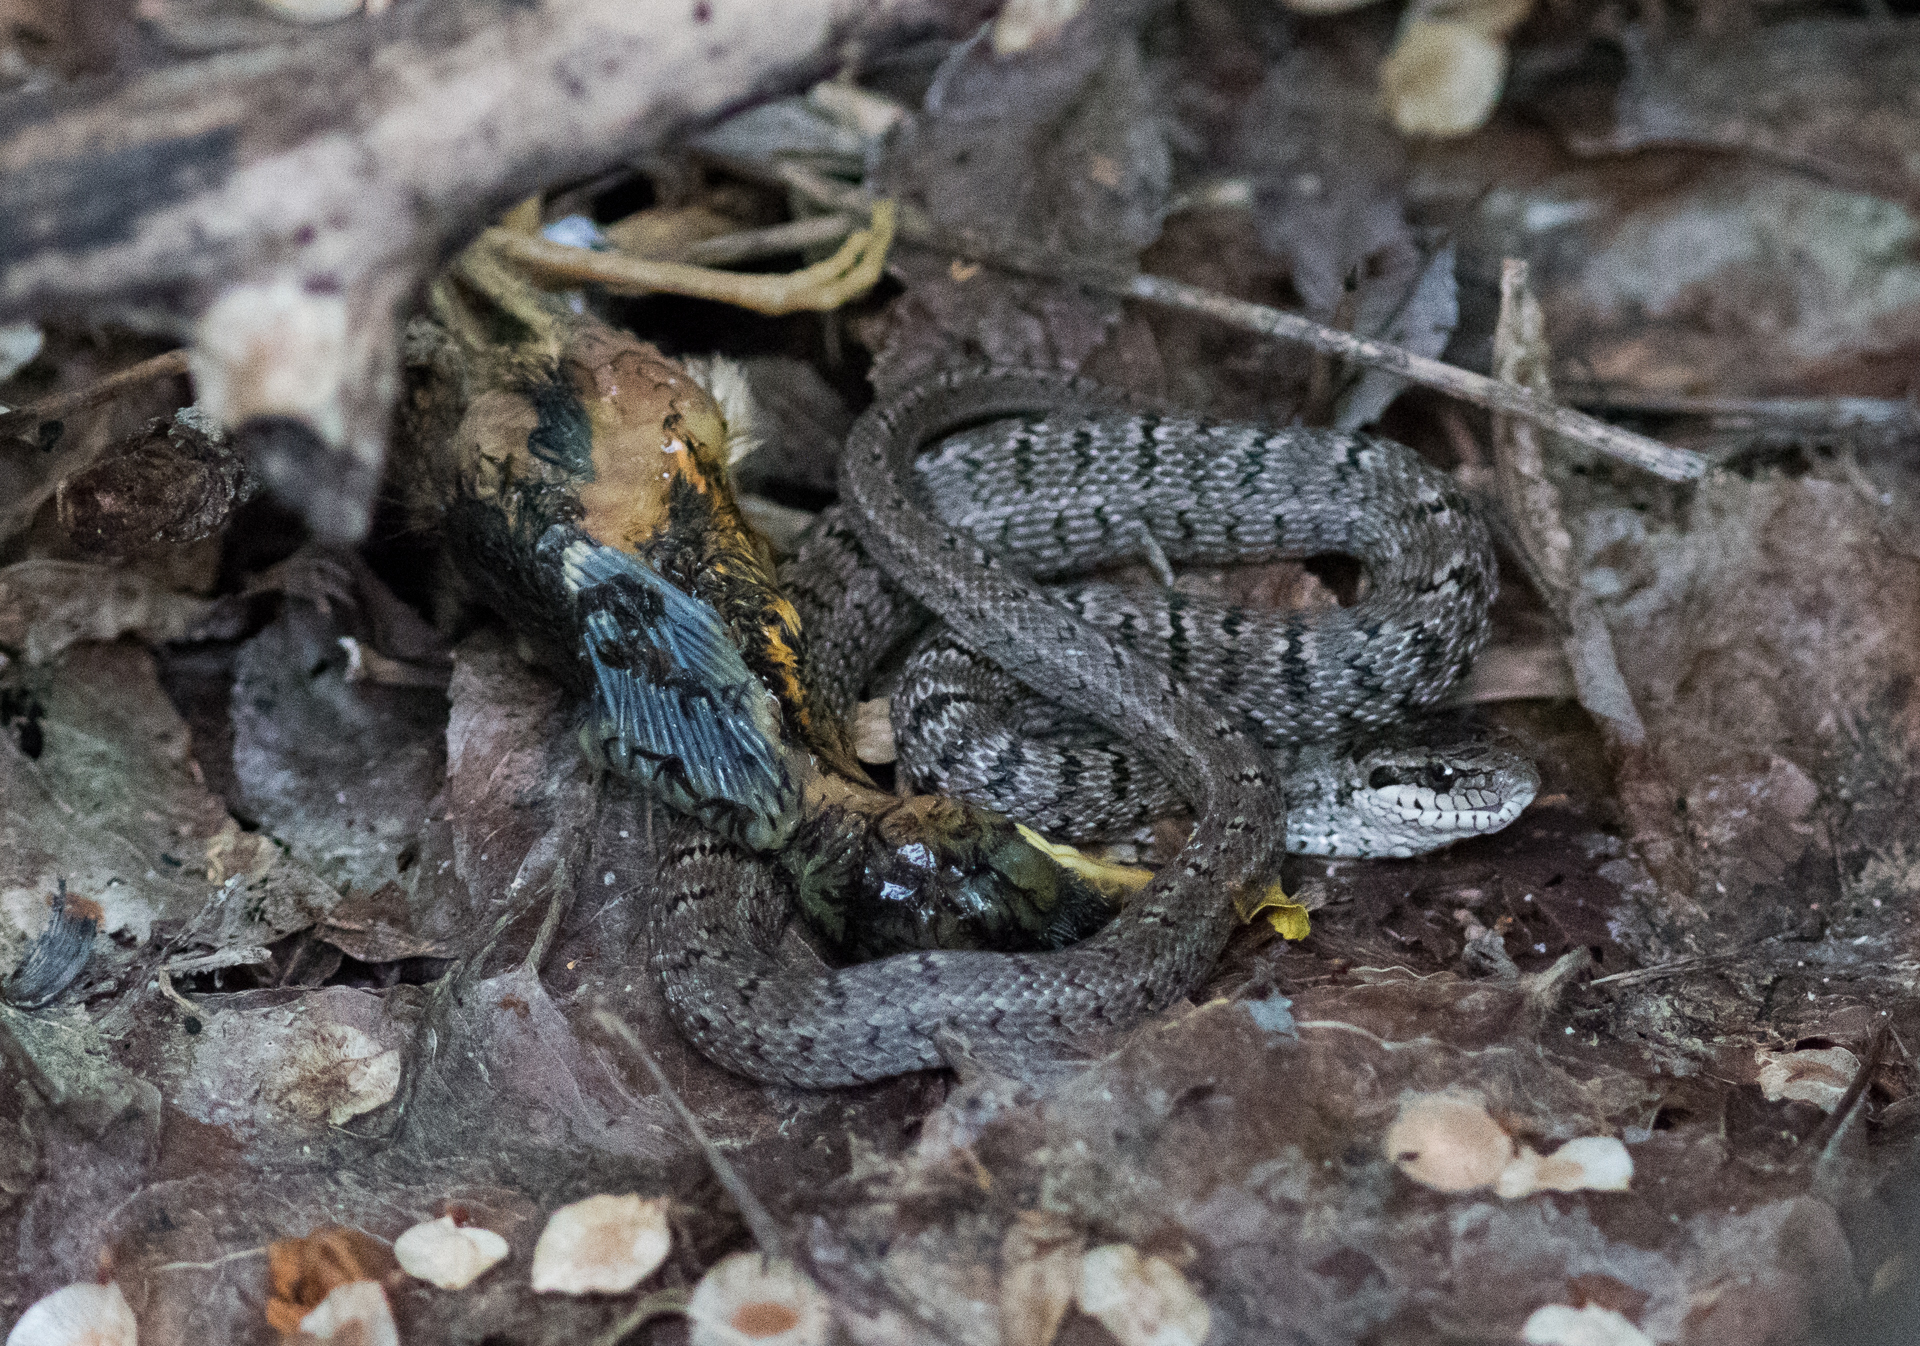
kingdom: Animalia
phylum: Chordata
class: Aves
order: Passeriformes
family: Muscicapidae
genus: Erithacus
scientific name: Erithacus rubecula
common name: European robin
